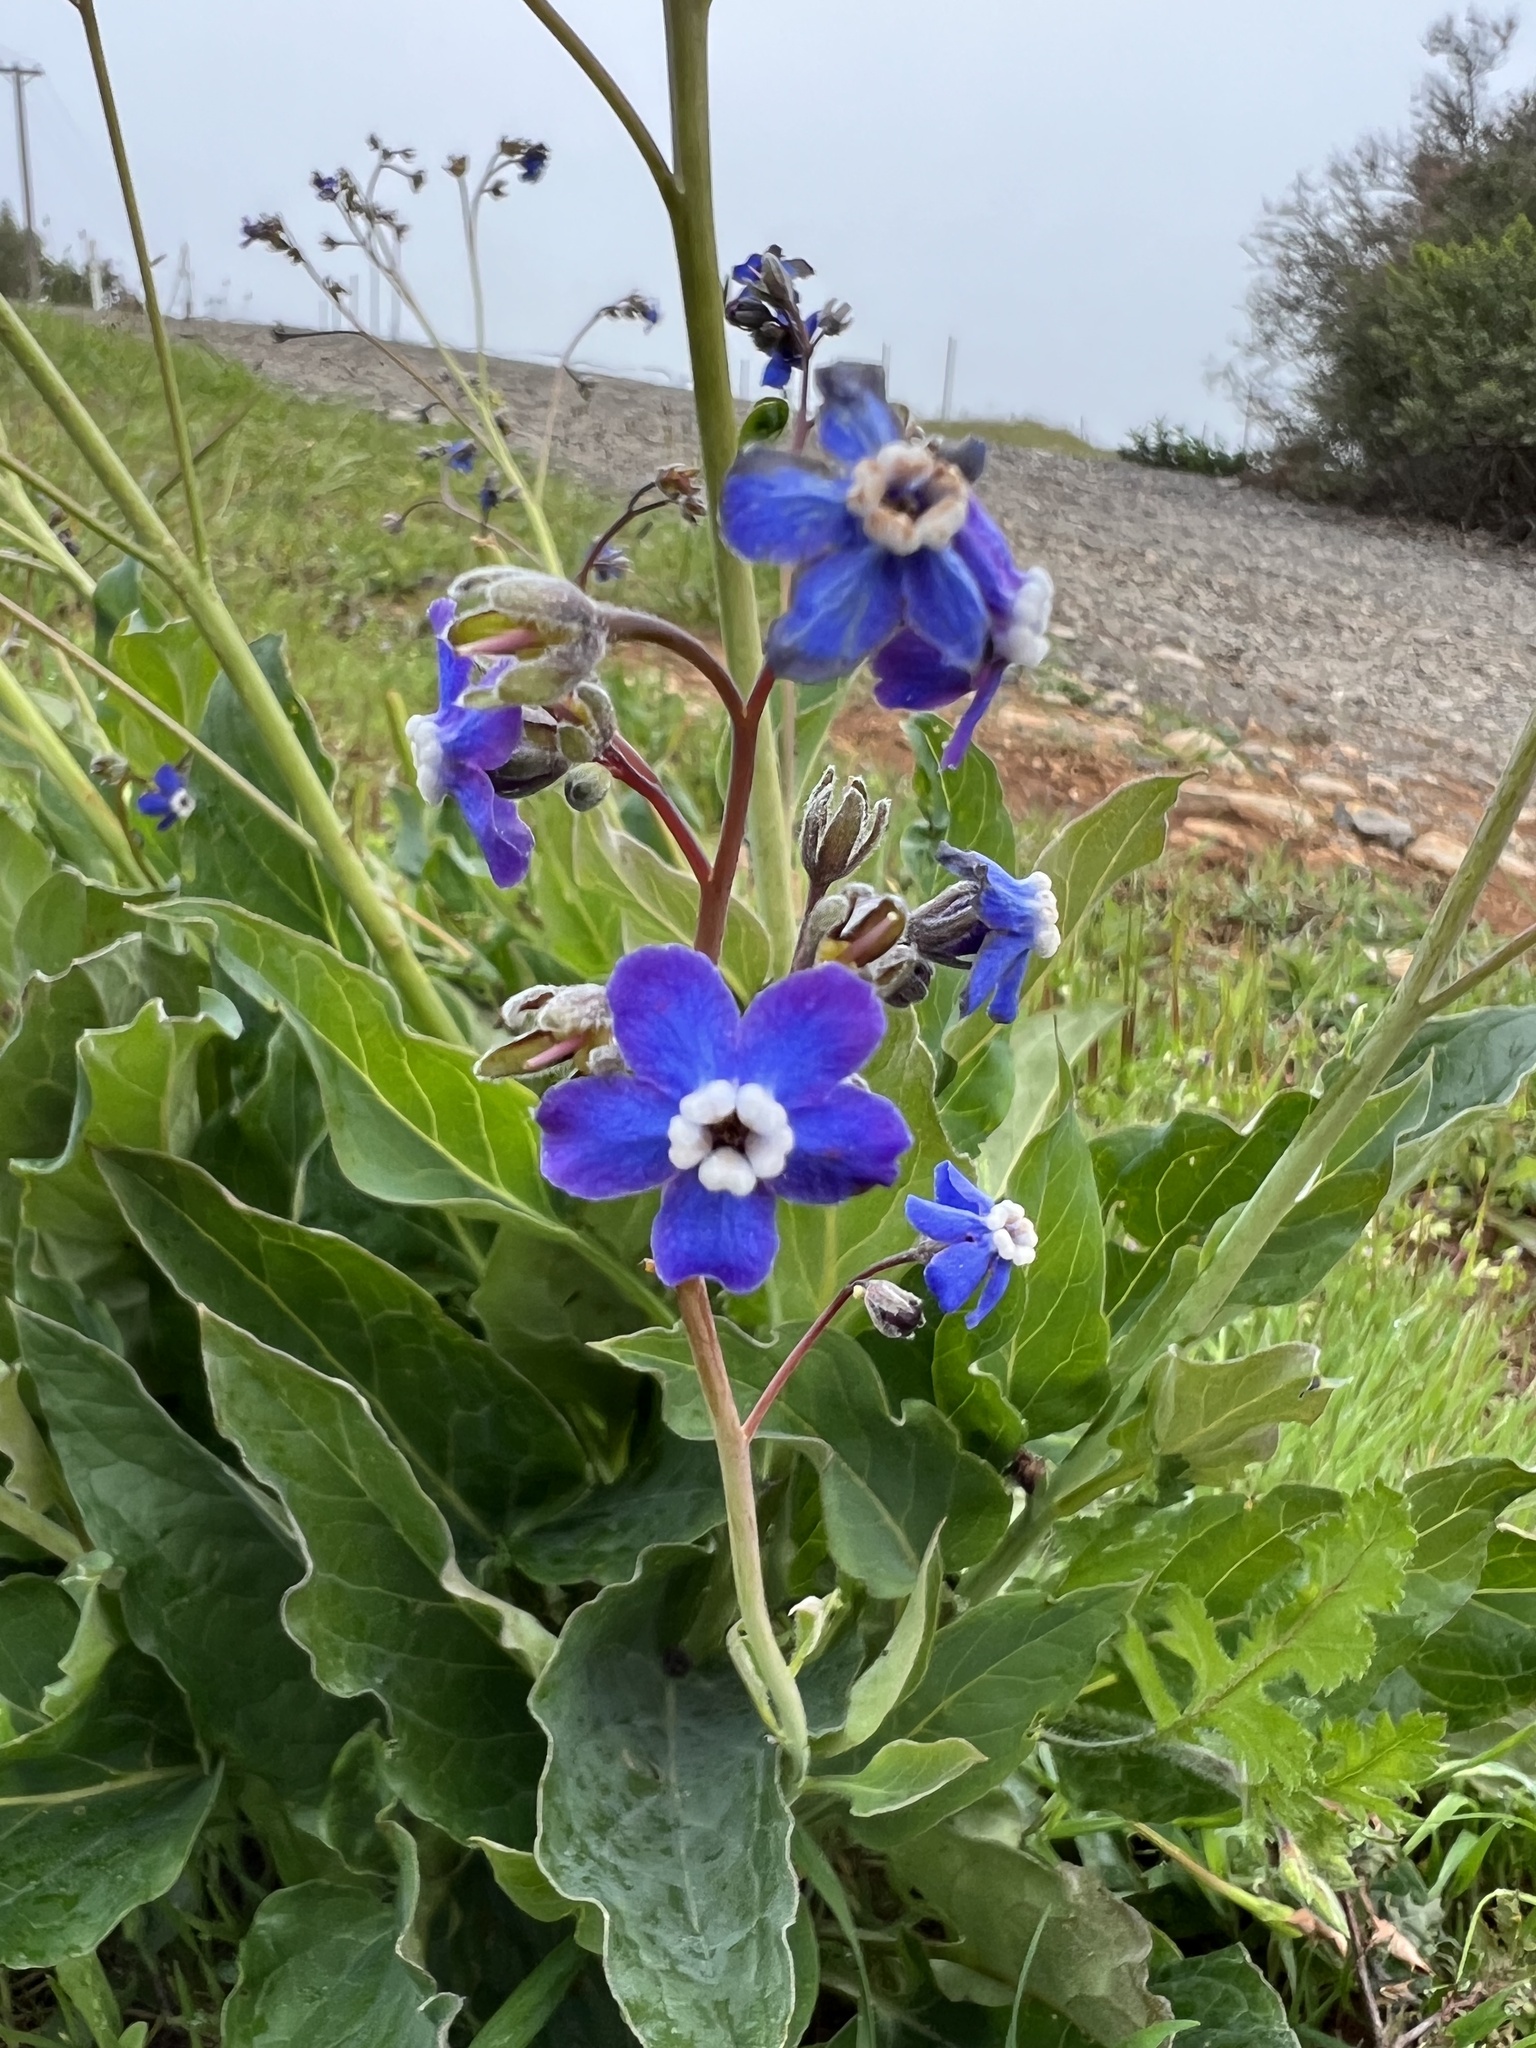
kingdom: Plantae
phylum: Tracheophyta
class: Magnoliopsida
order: Boraginales
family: Boraginaceae
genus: Adelinia
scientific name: Adelinia grande
